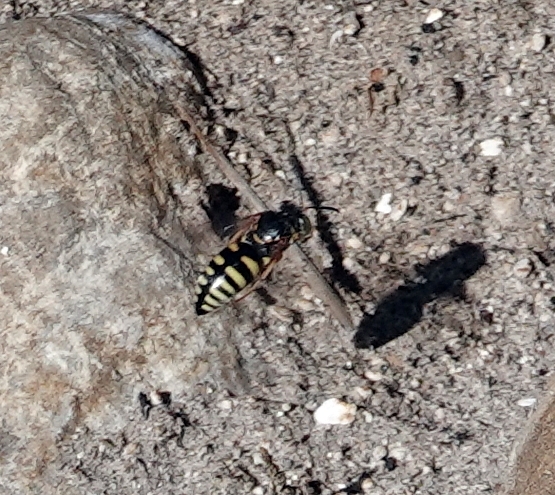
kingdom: Animalia
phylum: Arthropoda
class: Insecta
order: Hymenoptera
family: Crabronidae
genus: Bicyrtes
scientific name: Bicyrtes ventralis
